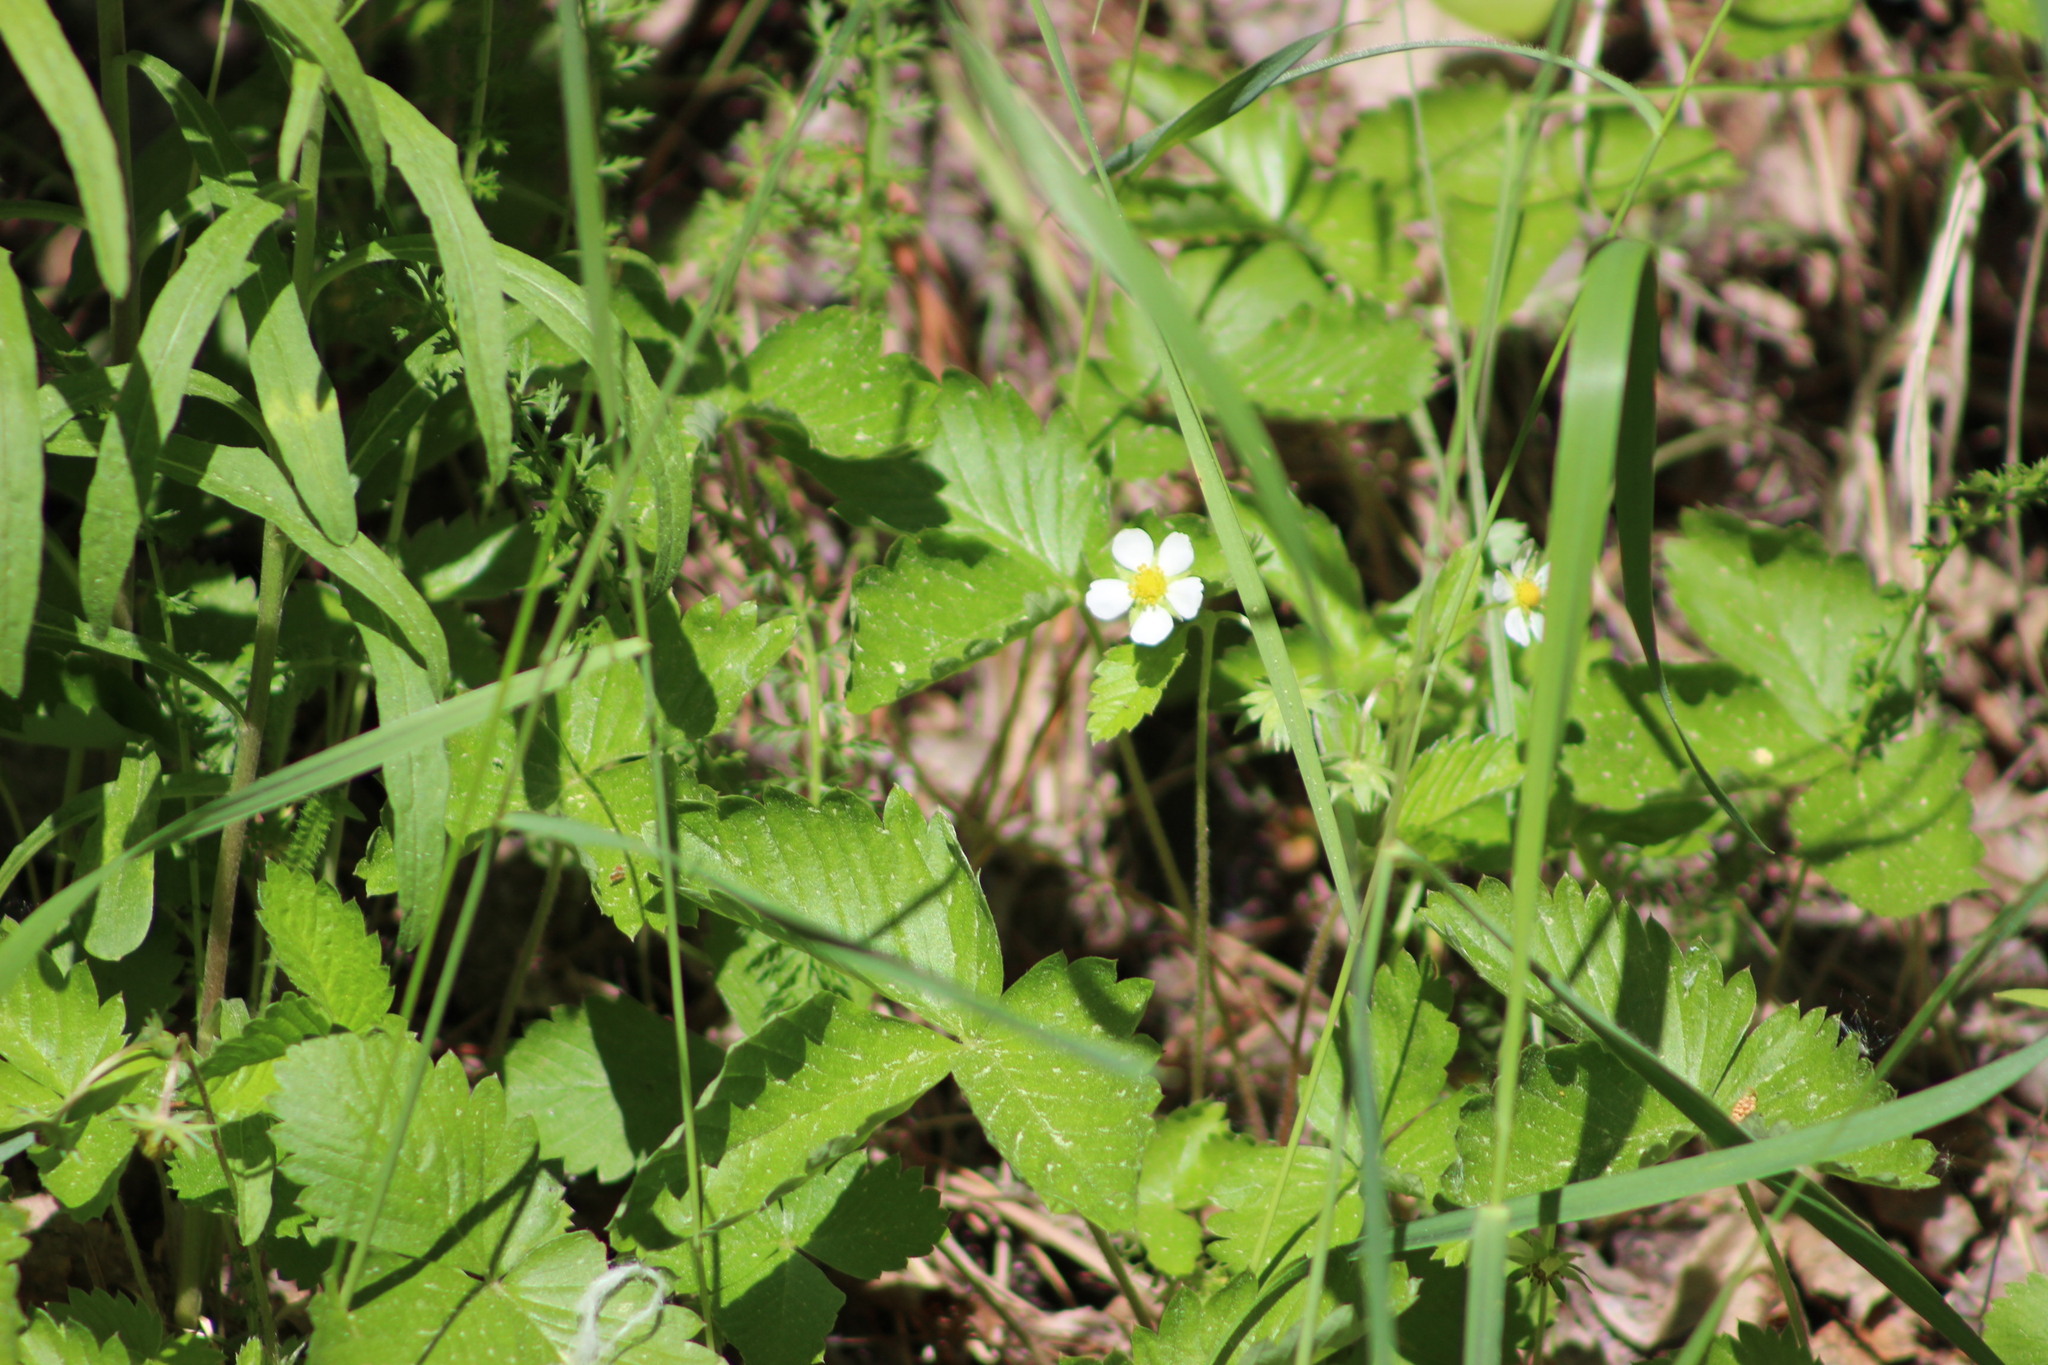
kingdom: Plantae
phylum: Tracheophyta
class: Magnoliopsida
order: Rosales
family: Rosaceae
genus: Fragaria
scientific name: Fragaria vesca
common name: Wild strawberry
